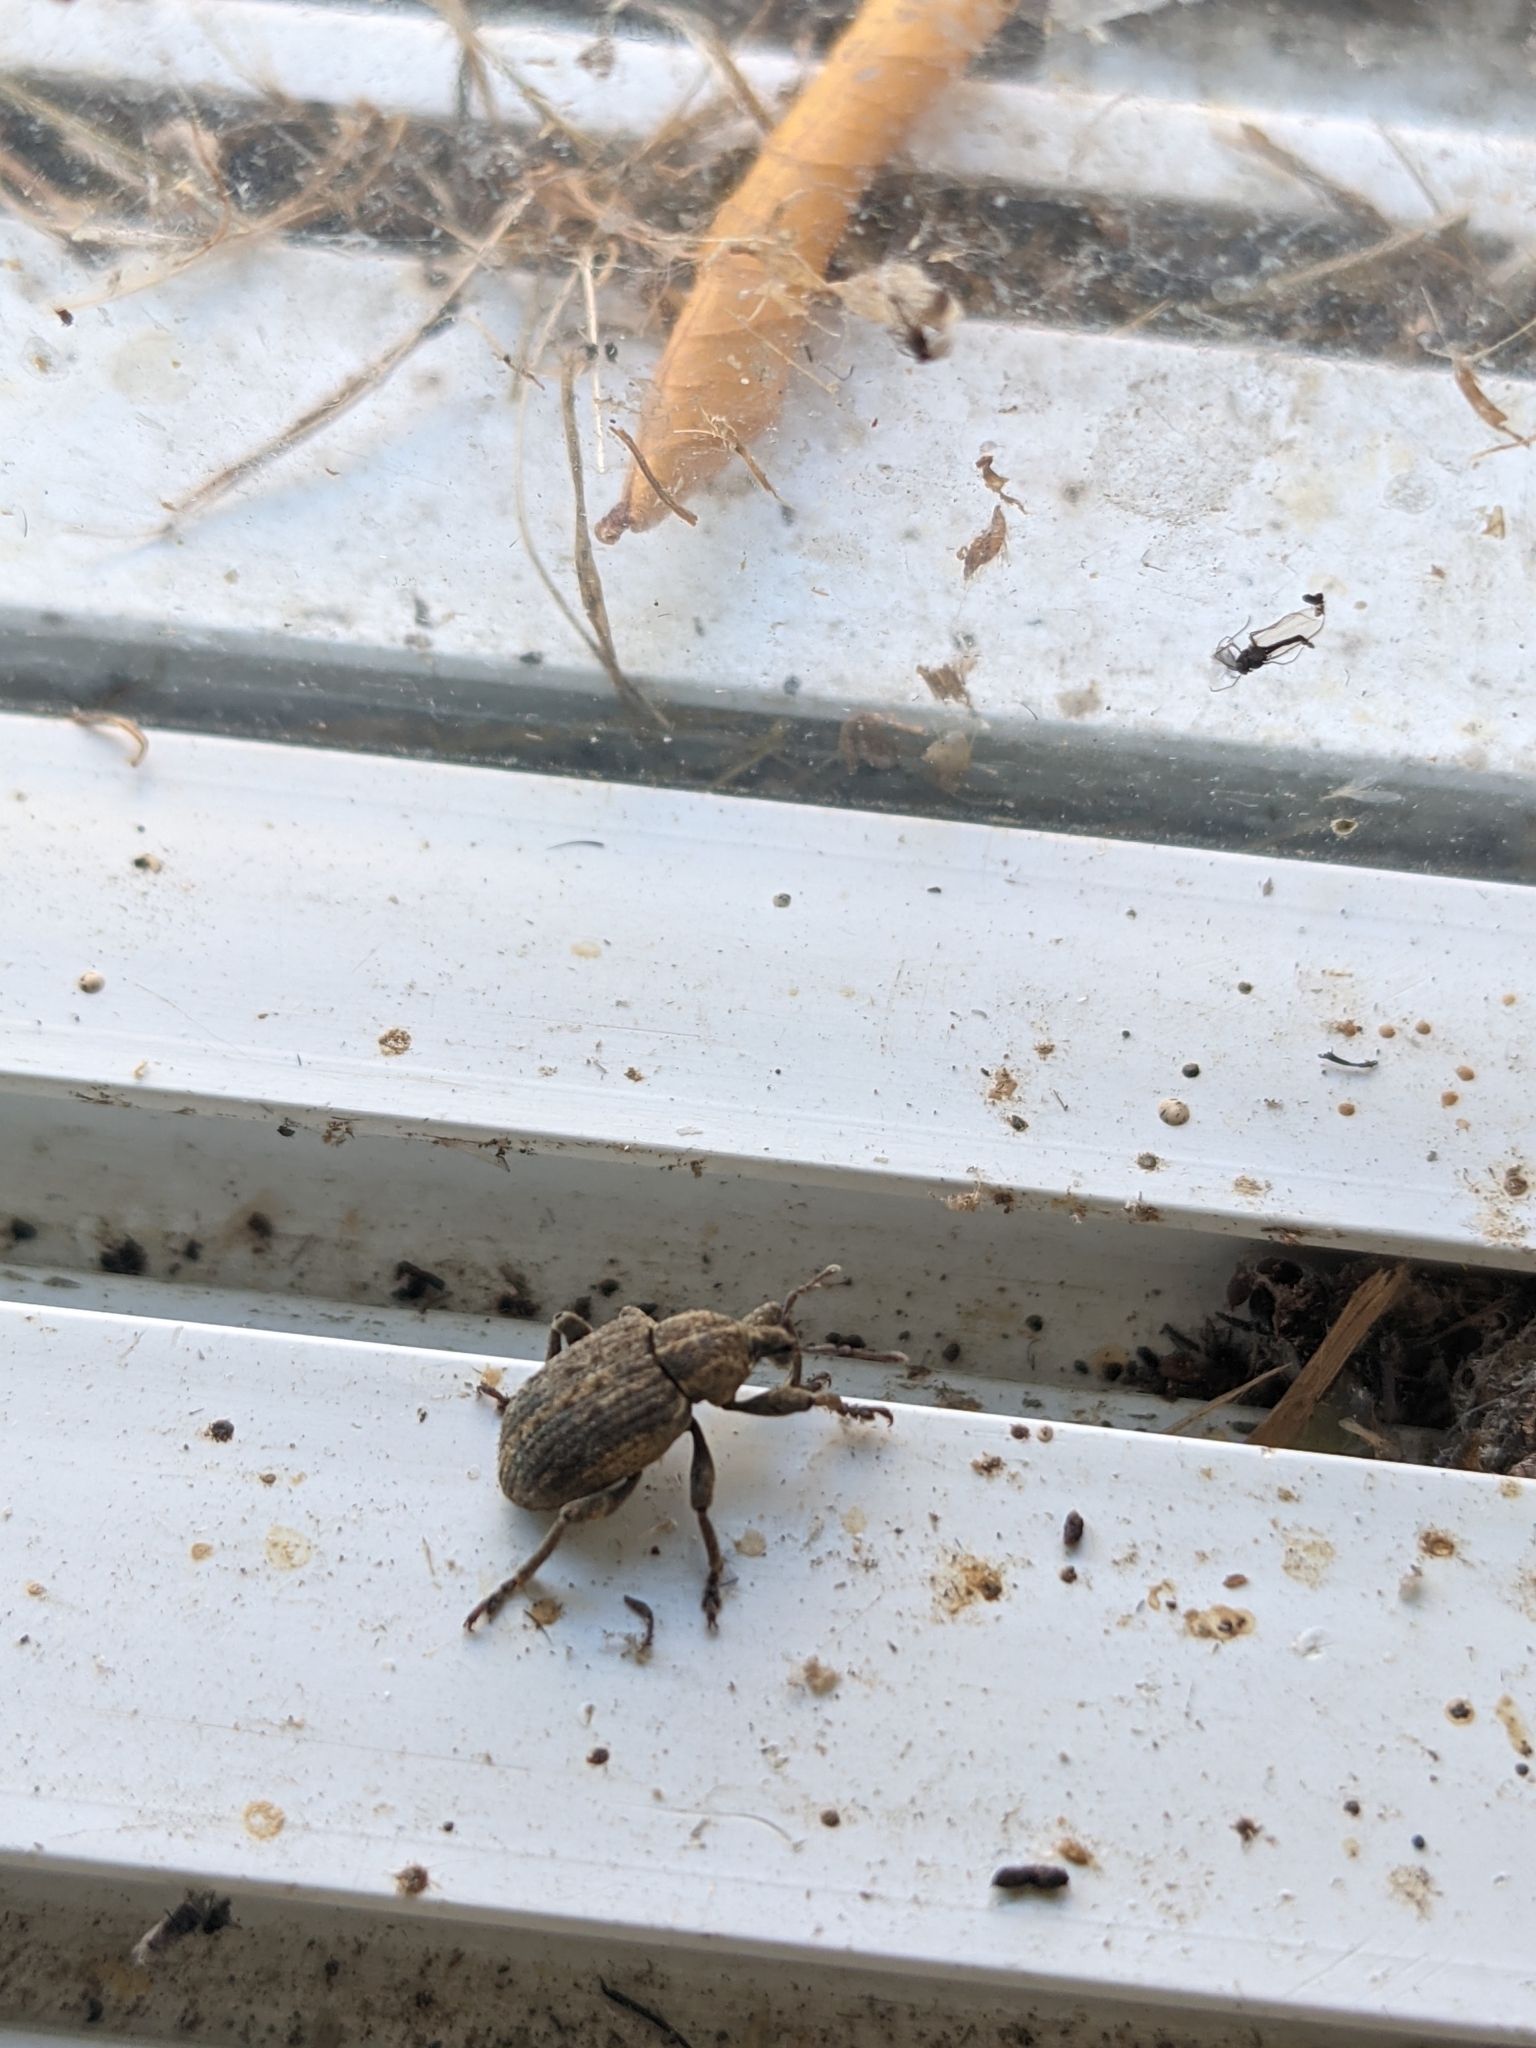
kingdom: Animalia
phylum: Arthropoda
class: Insecta
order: Coleoptera
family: Curculionidae
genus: Brachypera
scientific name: Brachypera zoilus
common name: Clover leaf weevil
